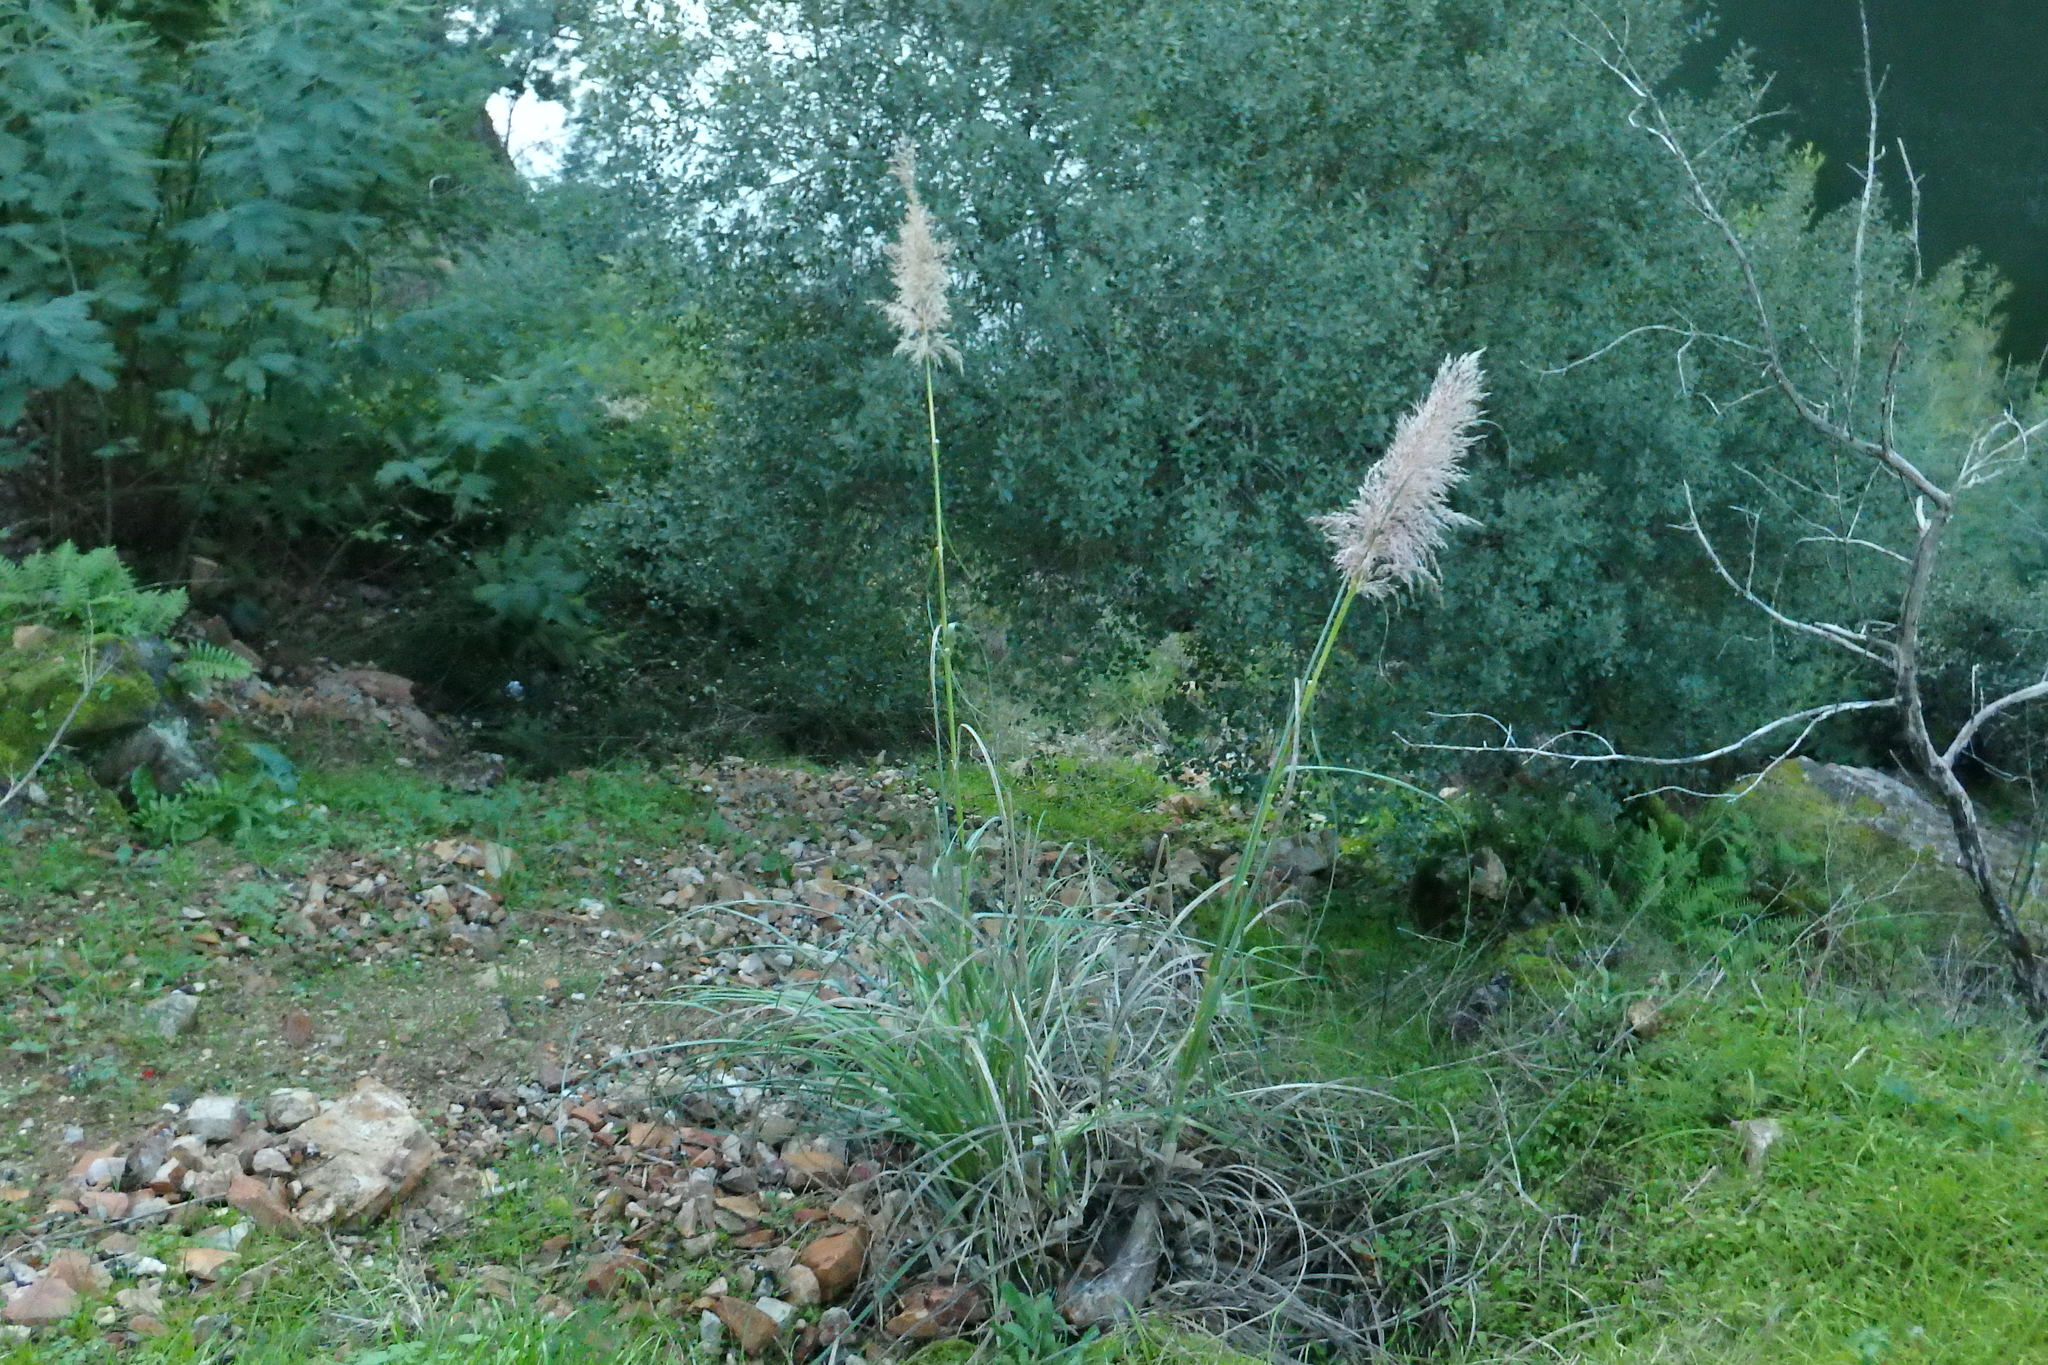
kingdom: Plantae
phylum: Tracheophyta
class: Liliopsida
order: Poales
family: Poaceae
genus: Cortaderia
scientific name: Cortaderia selloana
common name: Uruguayan pampas grass
